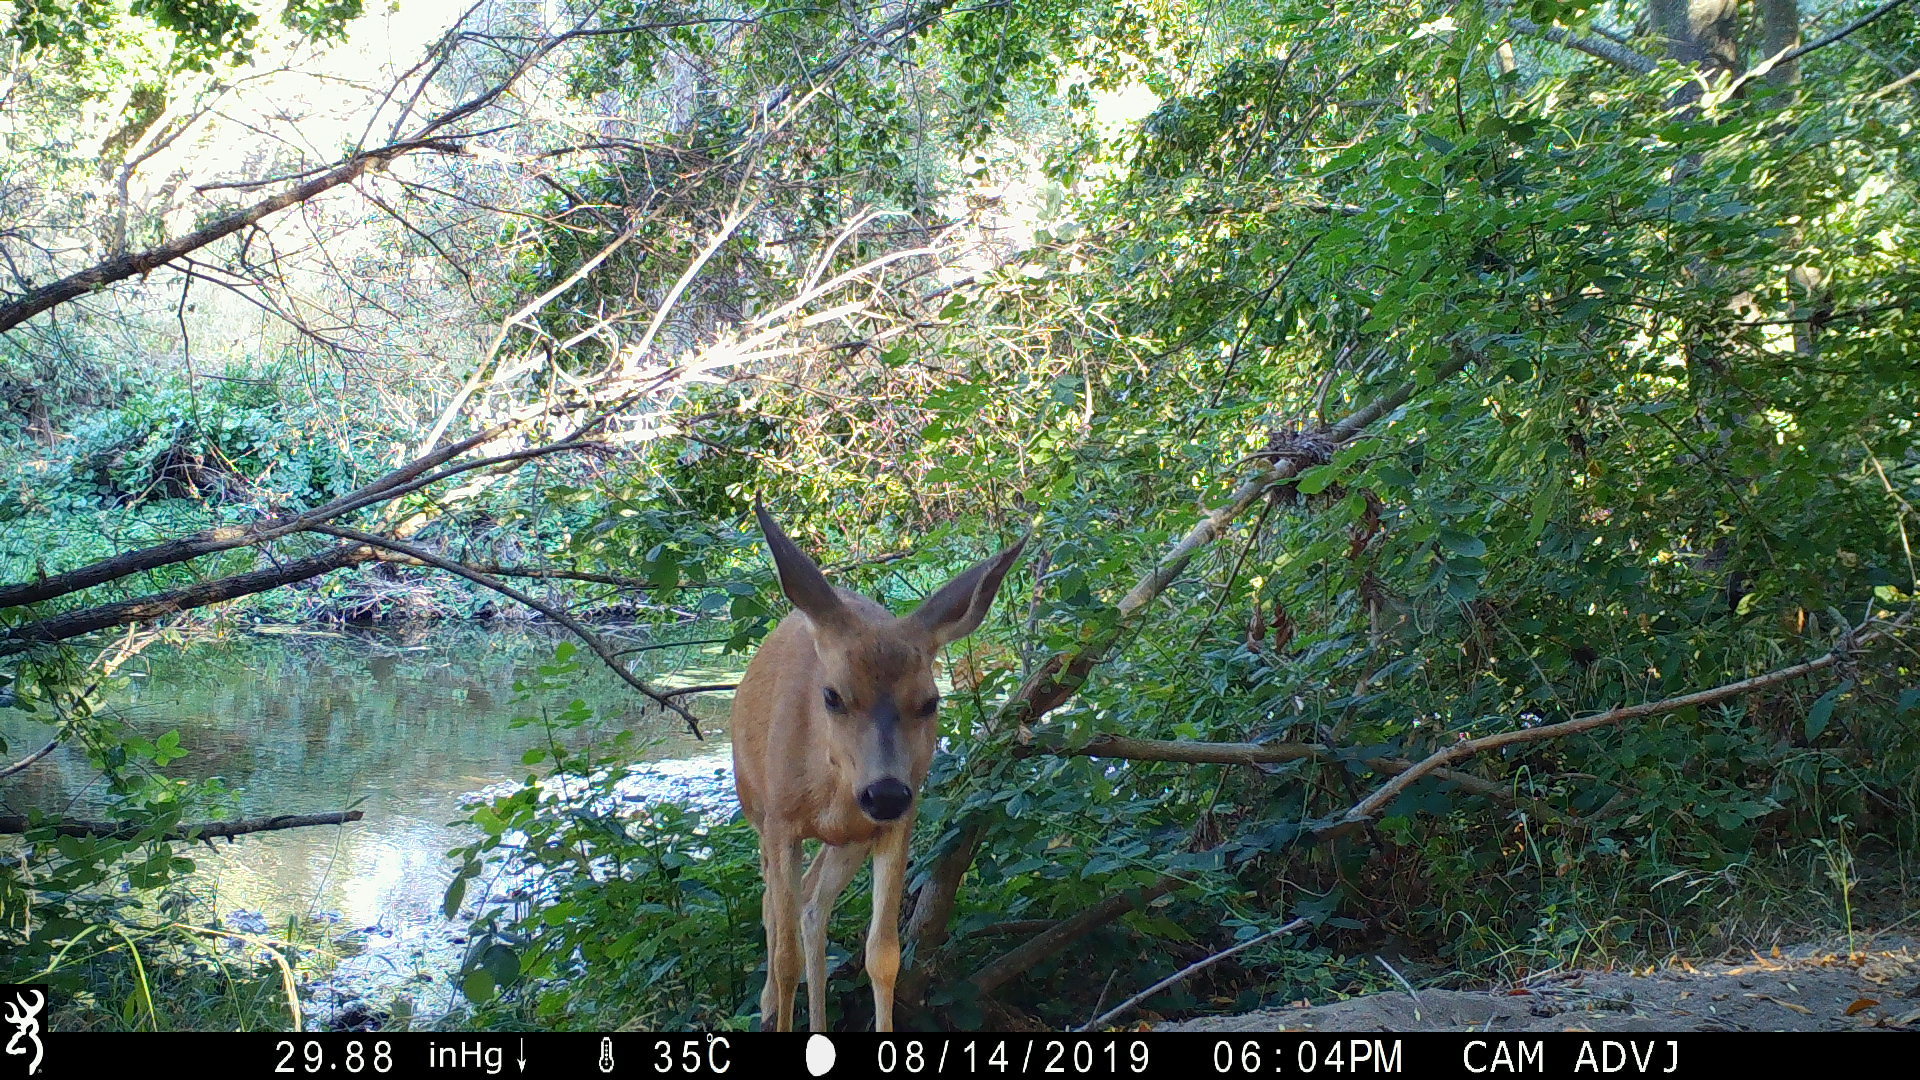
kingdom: Animalia
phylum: Chordata
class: Mammalia
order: Artiodactyla
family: Cervidae
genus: Odocoileus
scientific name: Odocoileus hemionus
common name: Mule deer
